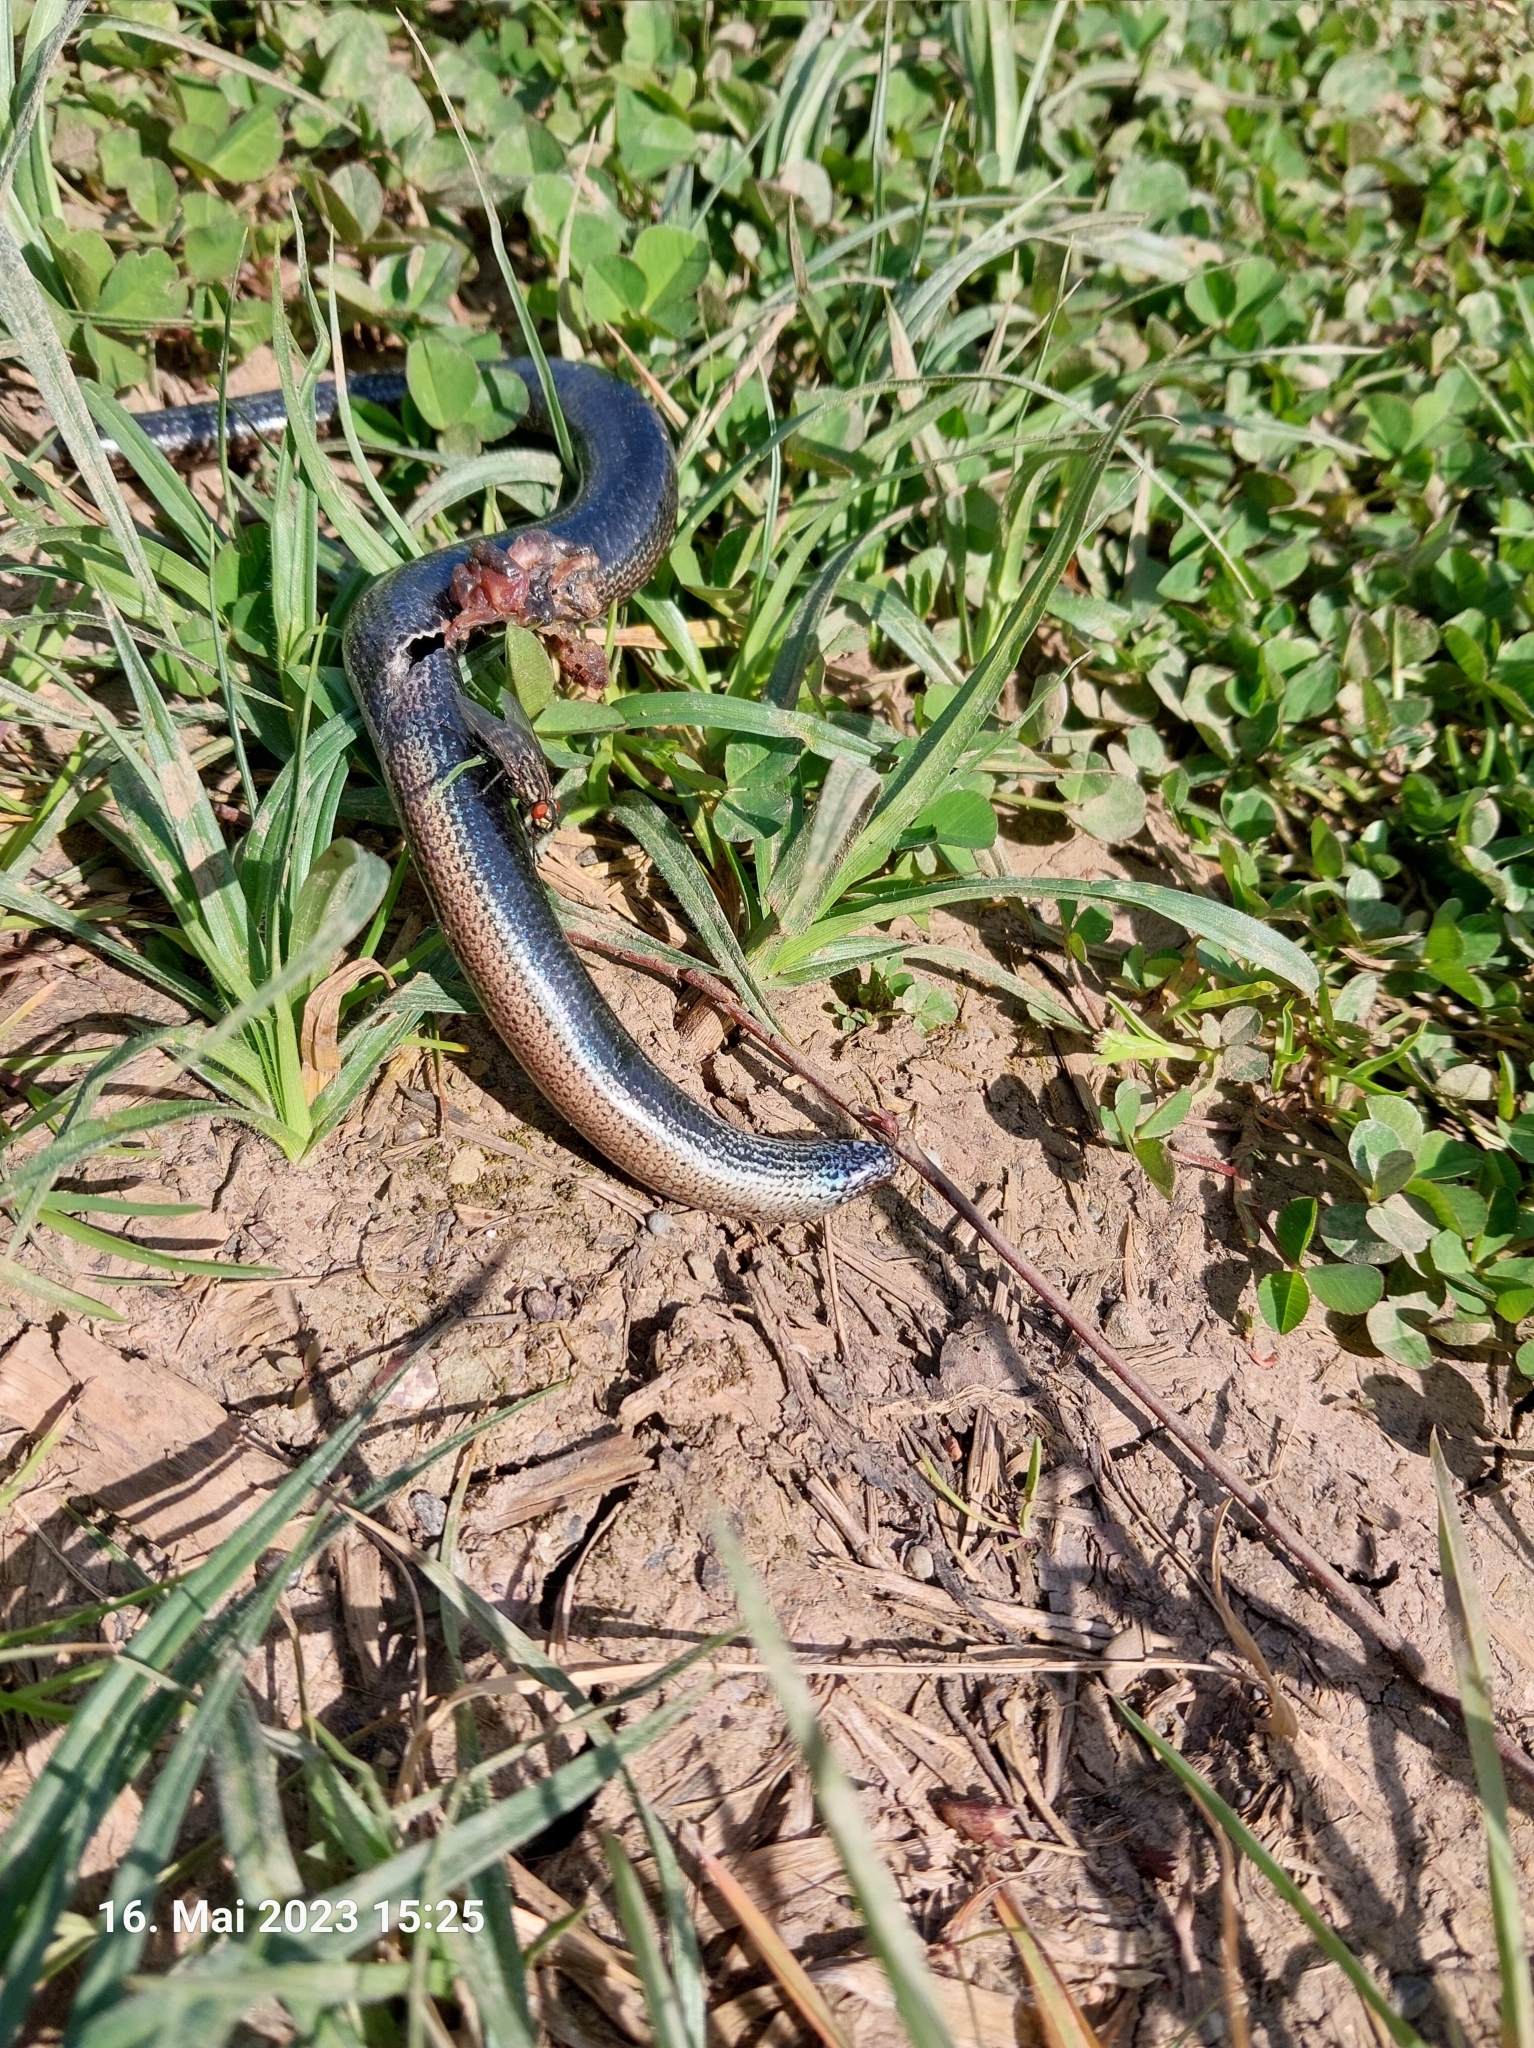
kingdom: Animalia
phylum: Chordata
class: Squamata
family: Anguidae
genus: Anguis
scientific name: Anguis fragilis
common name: Slow worm
